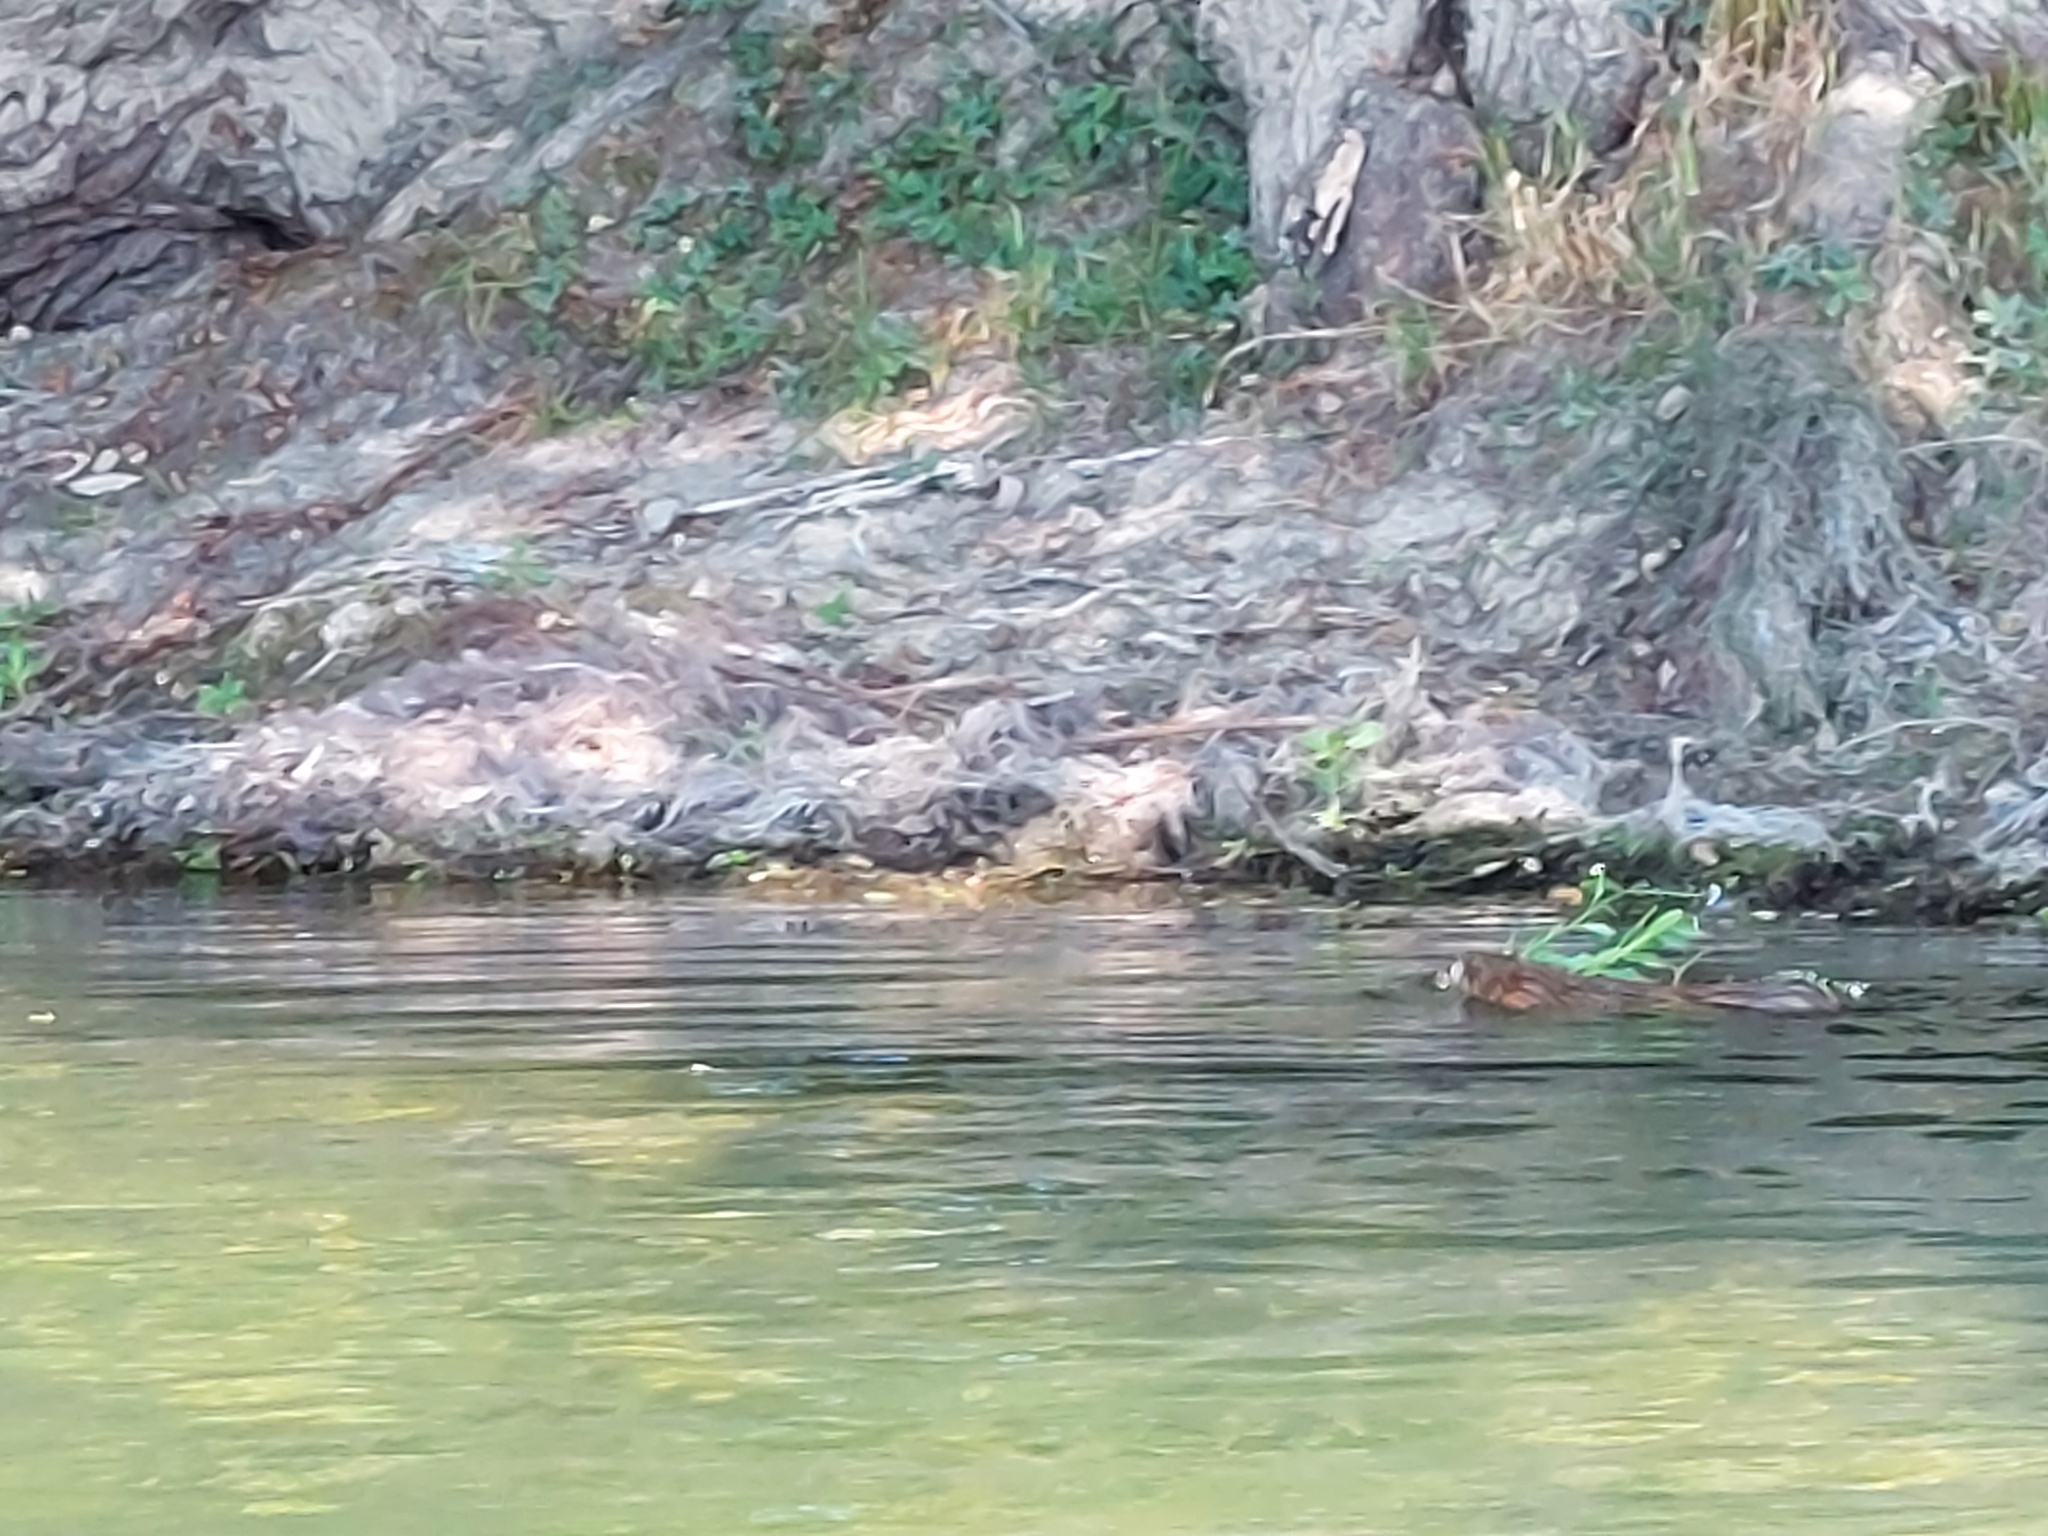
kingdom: Animalia
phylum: Chordata
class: Mammalia
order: Rodentia
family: Cricetidae
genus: Ondatra
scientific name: Ondatra zibethicus
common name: Muskrat
